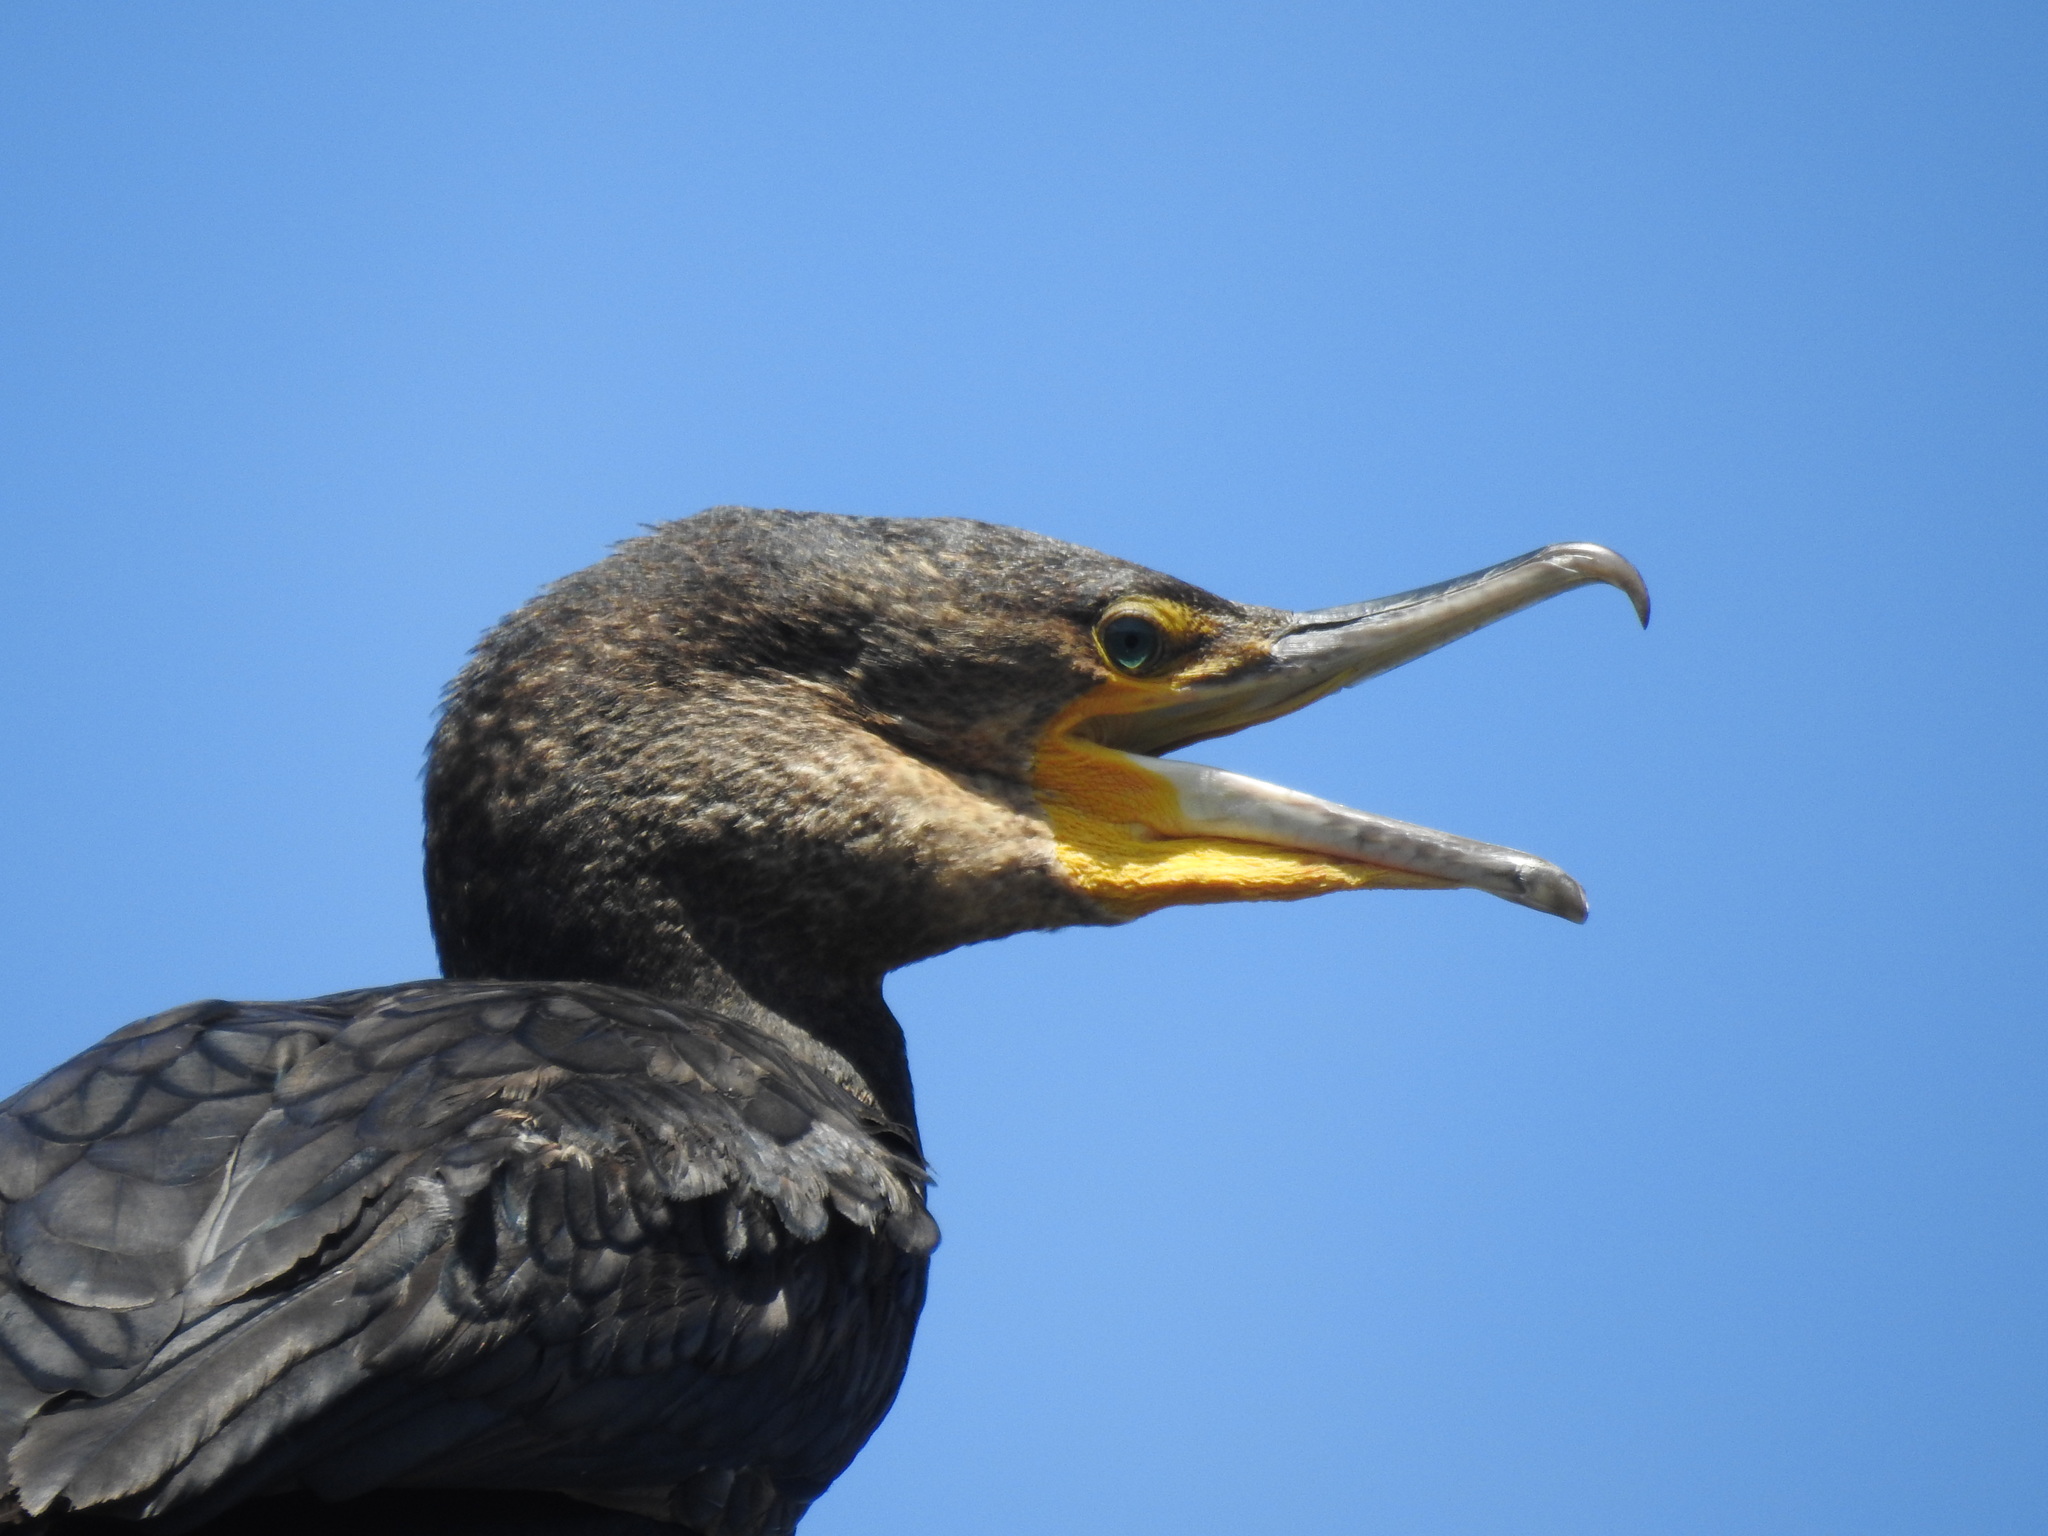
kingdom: Animalia
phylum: Chordata
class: Aves
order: Suliformes
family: Phalacrocoracidae
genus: Phalacrocorax
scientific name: Phalacrocorax carbo
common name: Great cormorant
